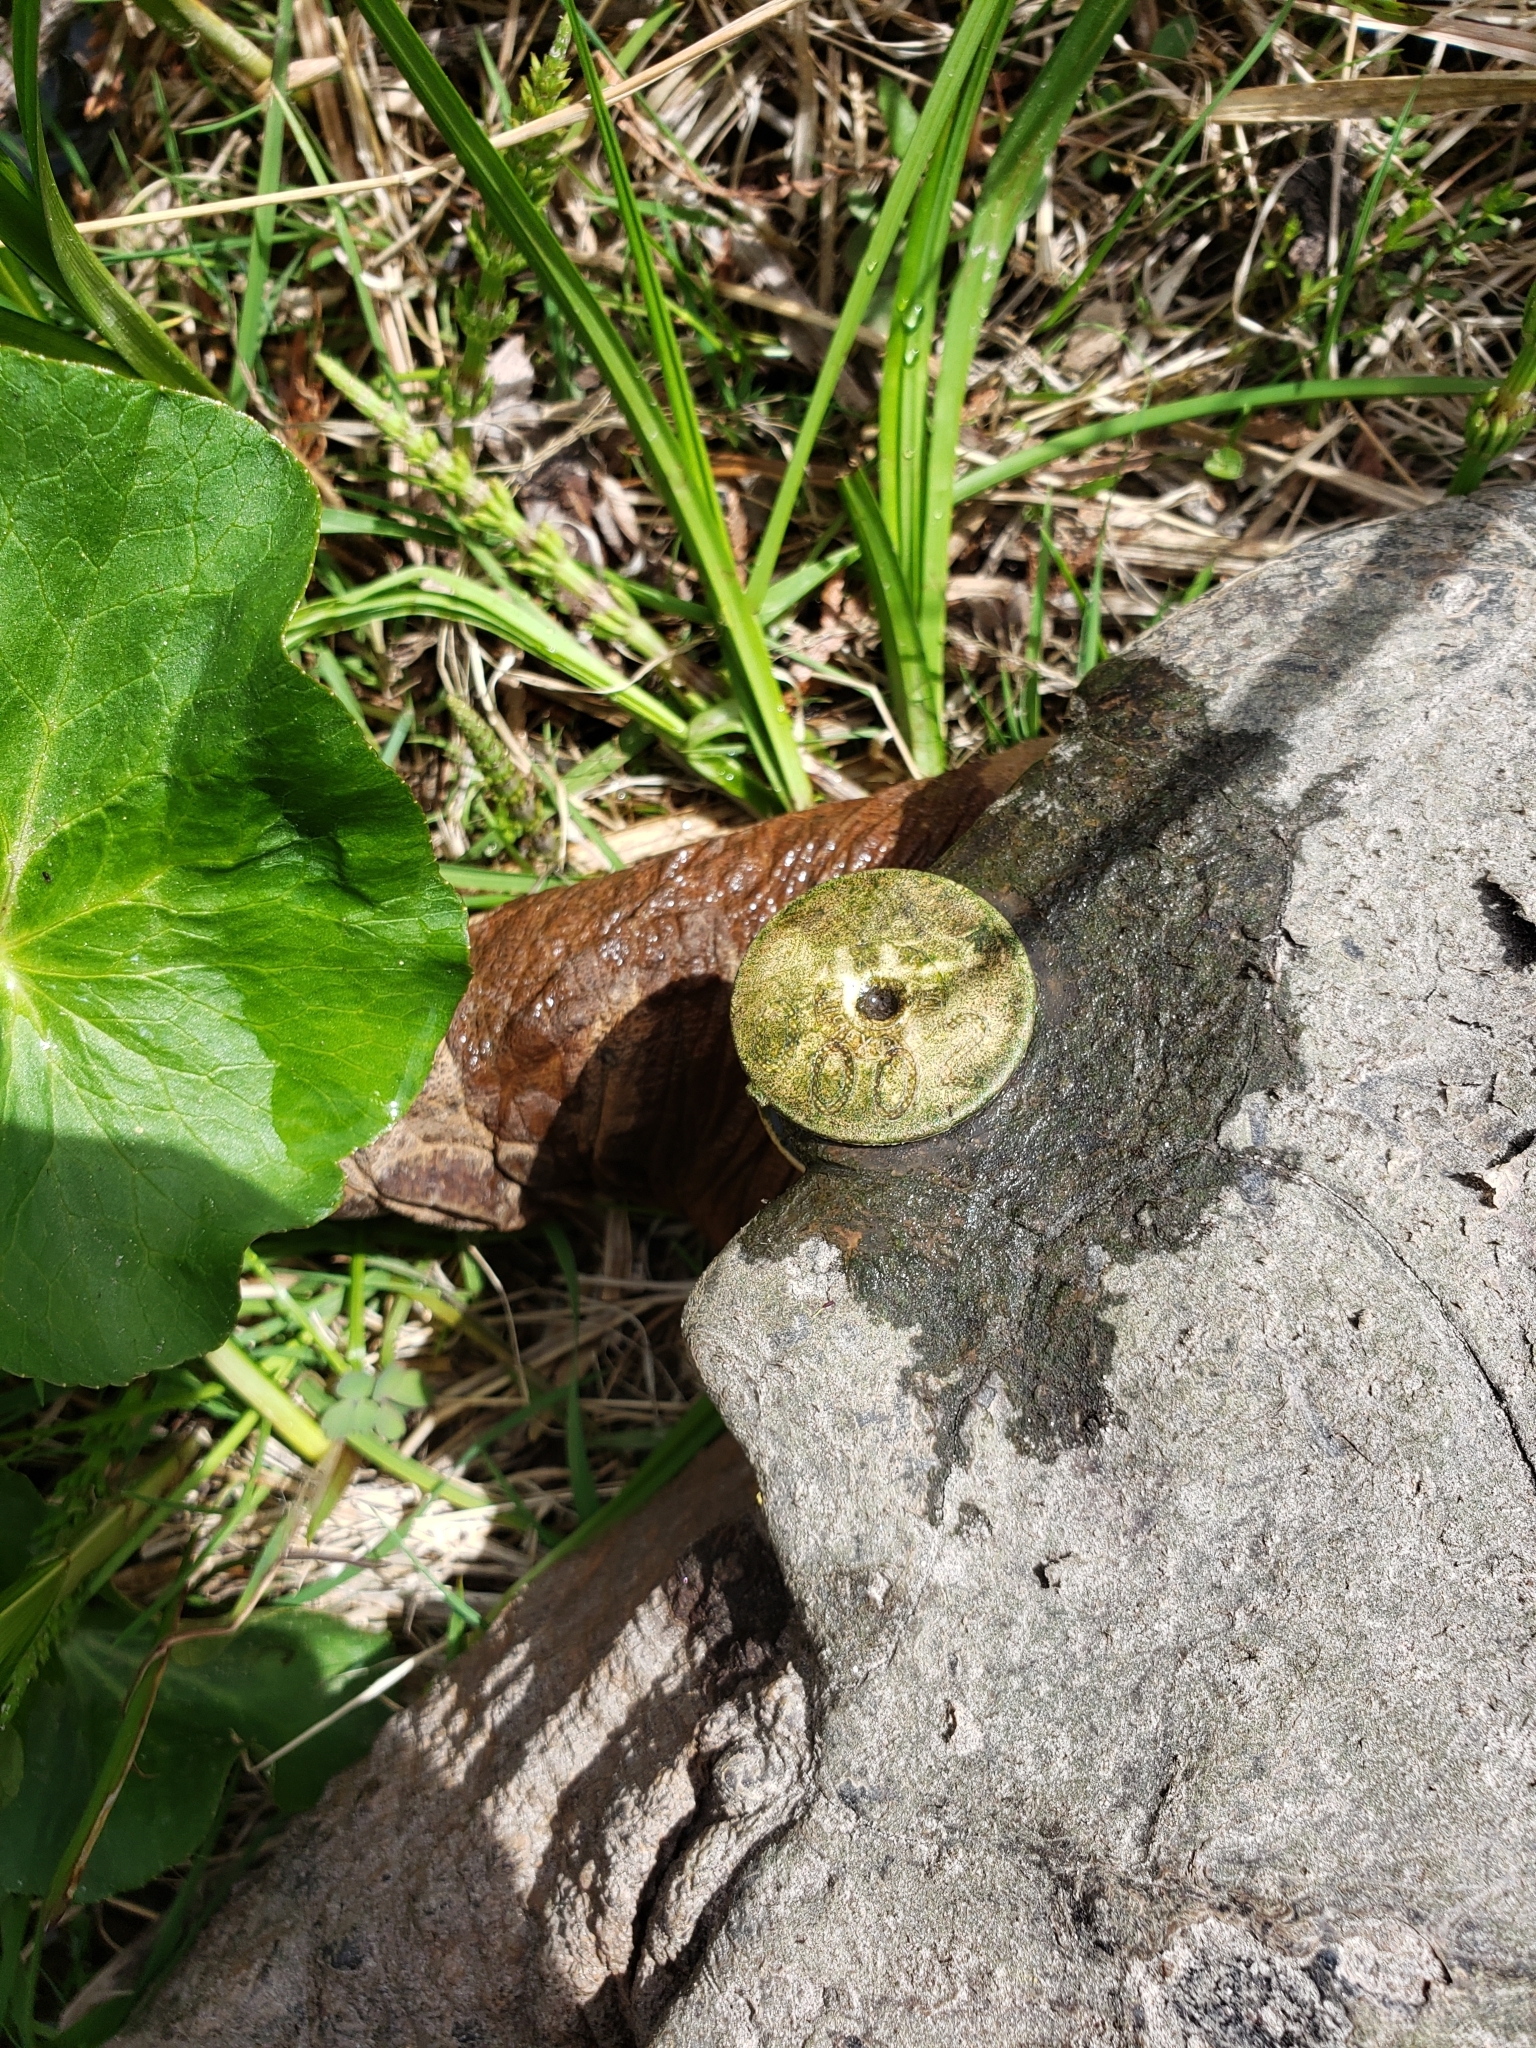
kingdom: Animalia
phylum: Chordata
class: Testudines
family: Chelydridae
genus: Chelydra
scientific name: Chelydra serpentina
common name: Common snapping turtle
